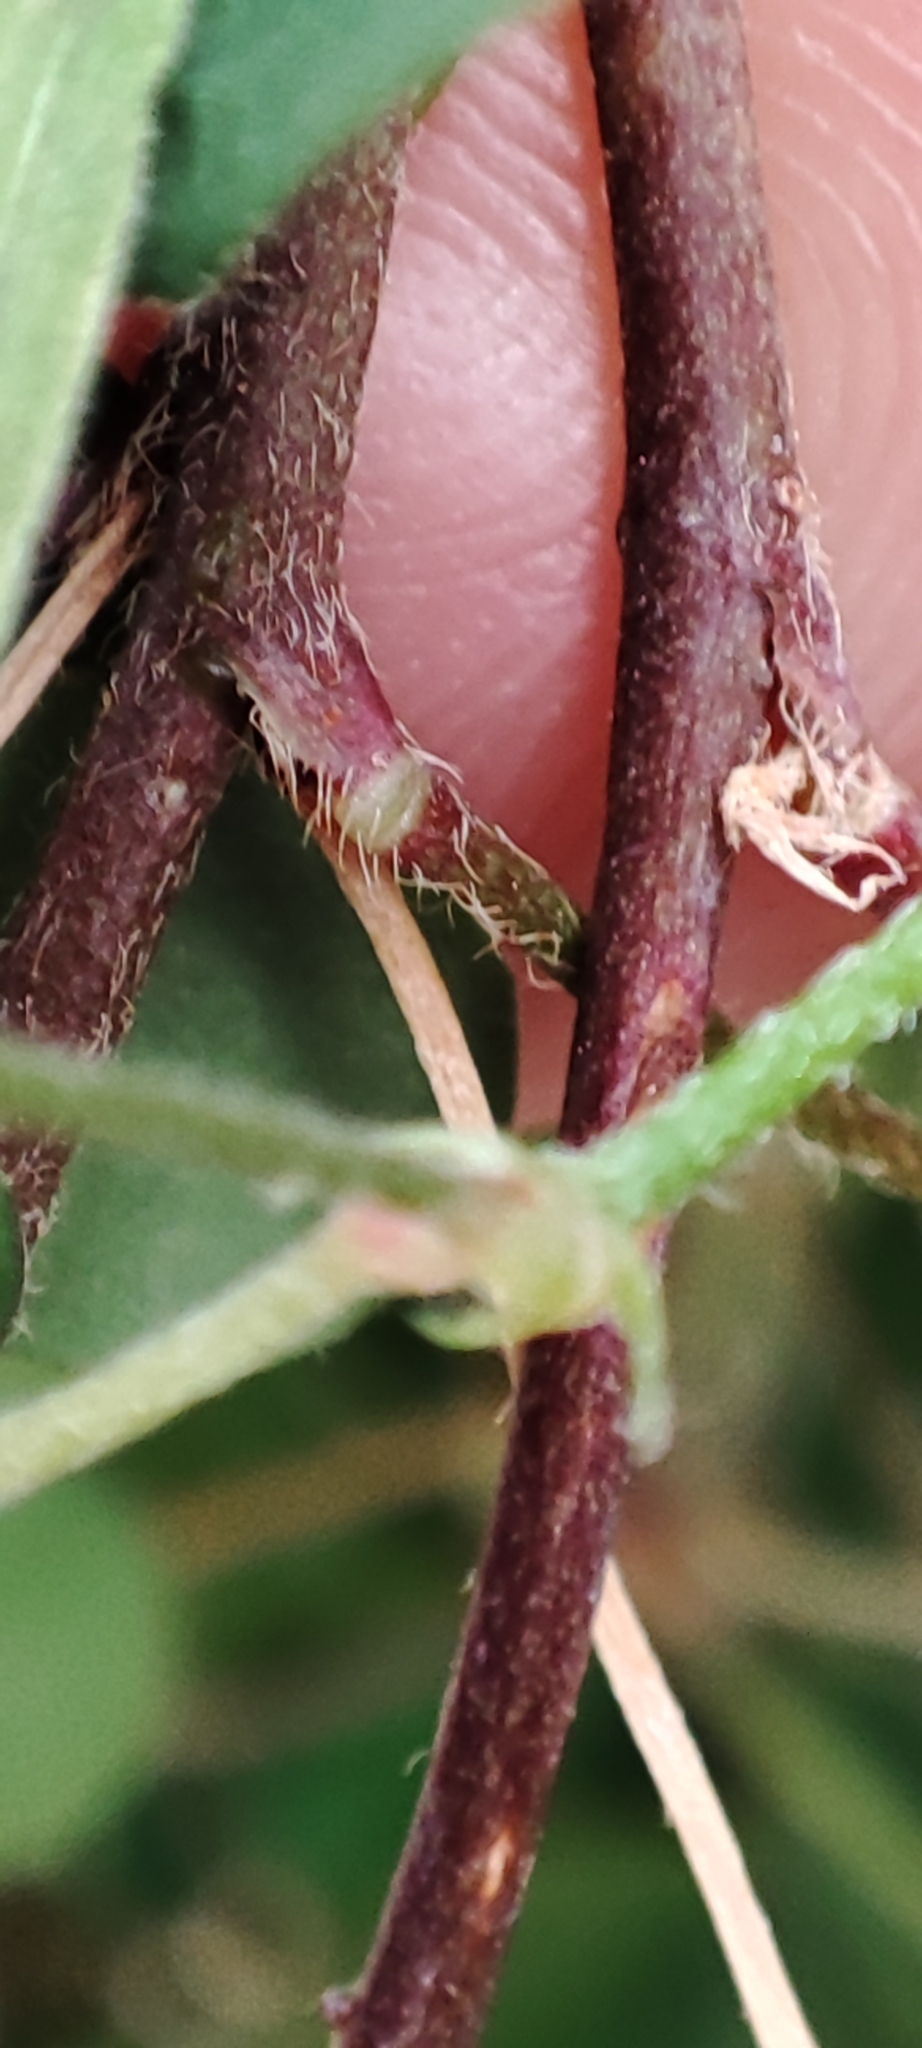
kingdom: Plantae
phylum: Tracheophyta
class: Magnoliopsida
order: Oxalidales
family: Oxalidaceae
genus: Oxalis
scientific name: Oxalis corniculata
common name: Procumbent yellow-sorrel
